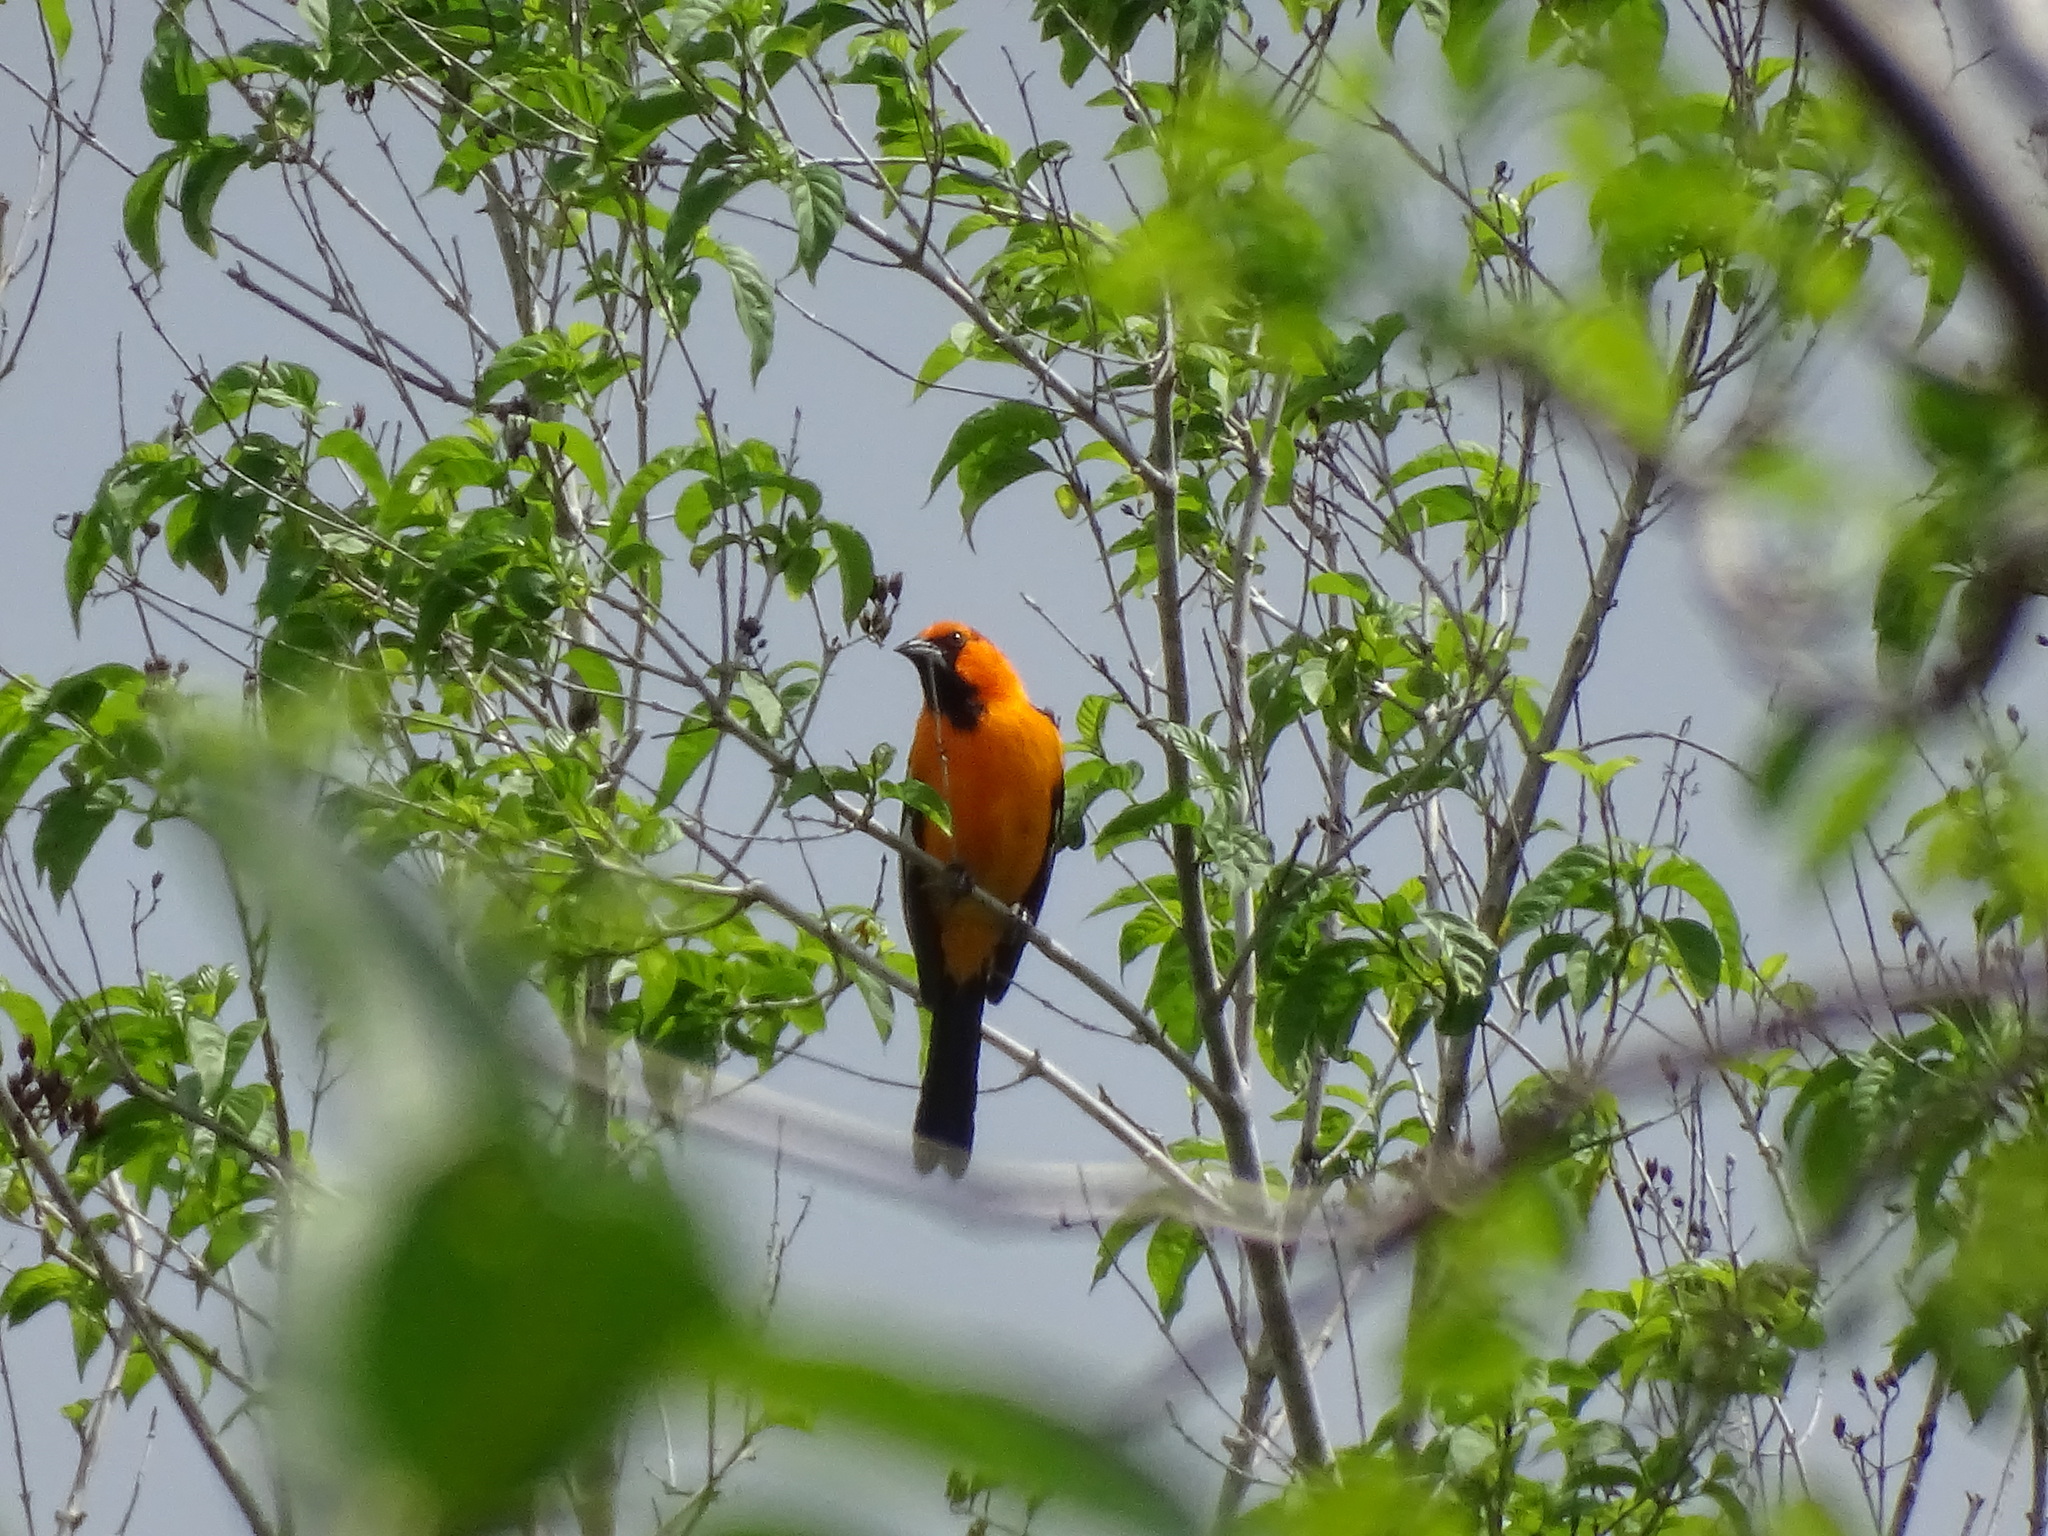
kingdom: Animalia
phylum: Chordata
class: Aves
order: Passeriformes
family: Icteridae
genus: Icterus
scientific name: Icterus gularis
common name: Altamira oriole
